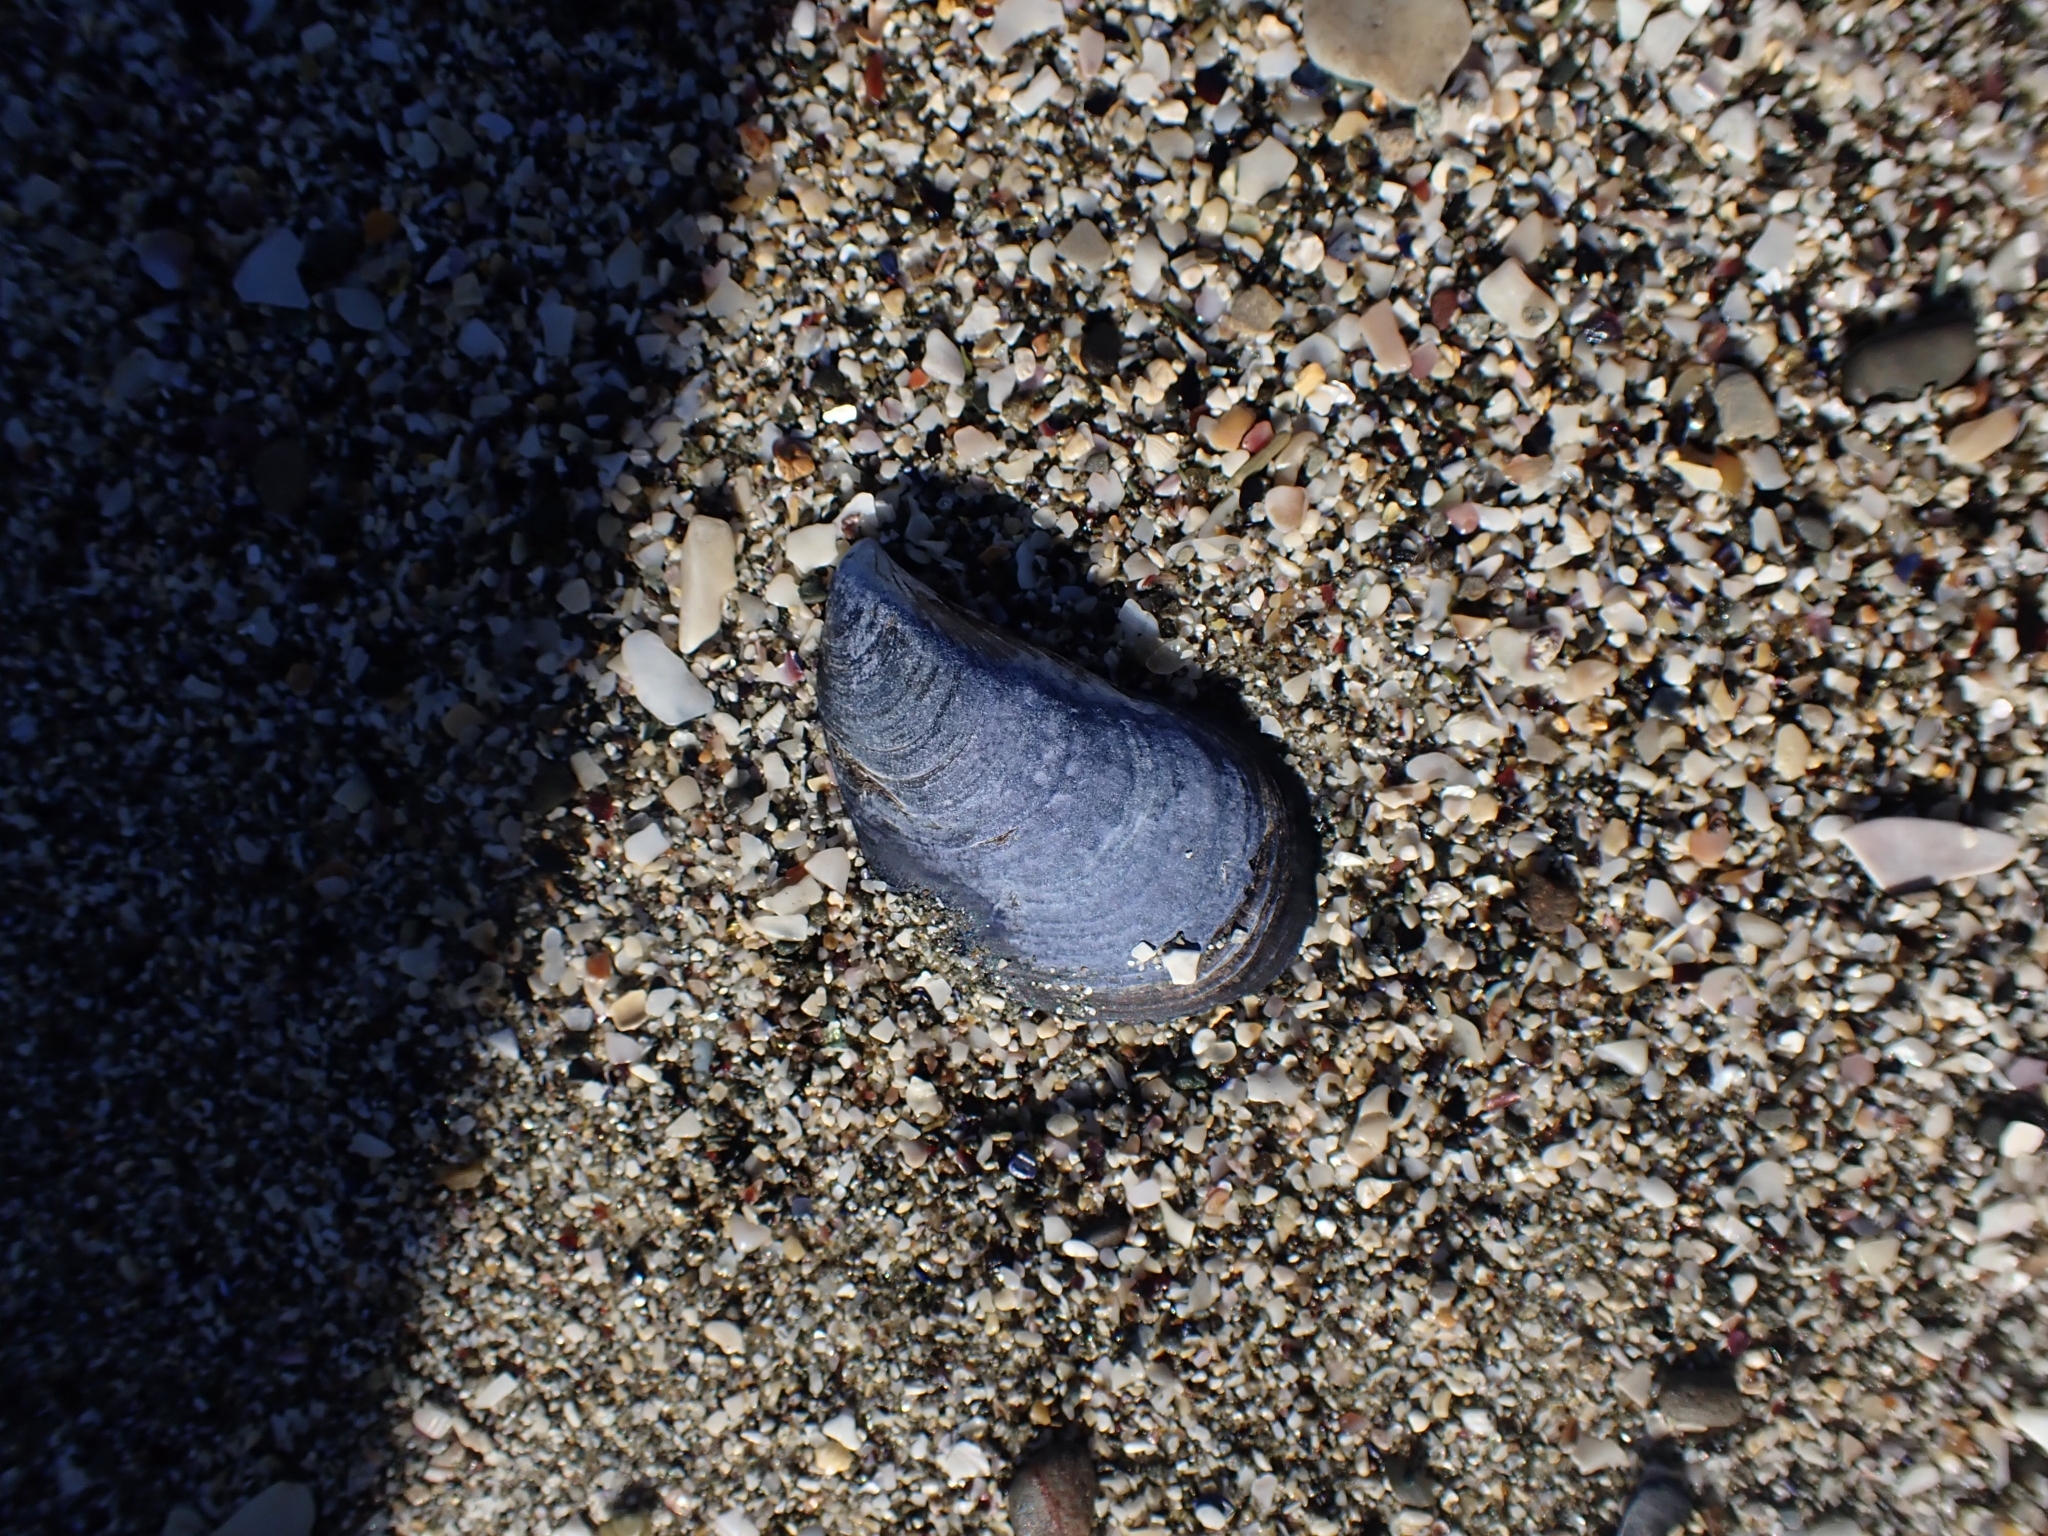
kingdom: Animalia
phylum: Mollusca
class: Bivalvia
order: Mytilida
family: Mytilidae
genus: Mytilus
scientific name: Mytilus planulatus
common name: Australian mussel
